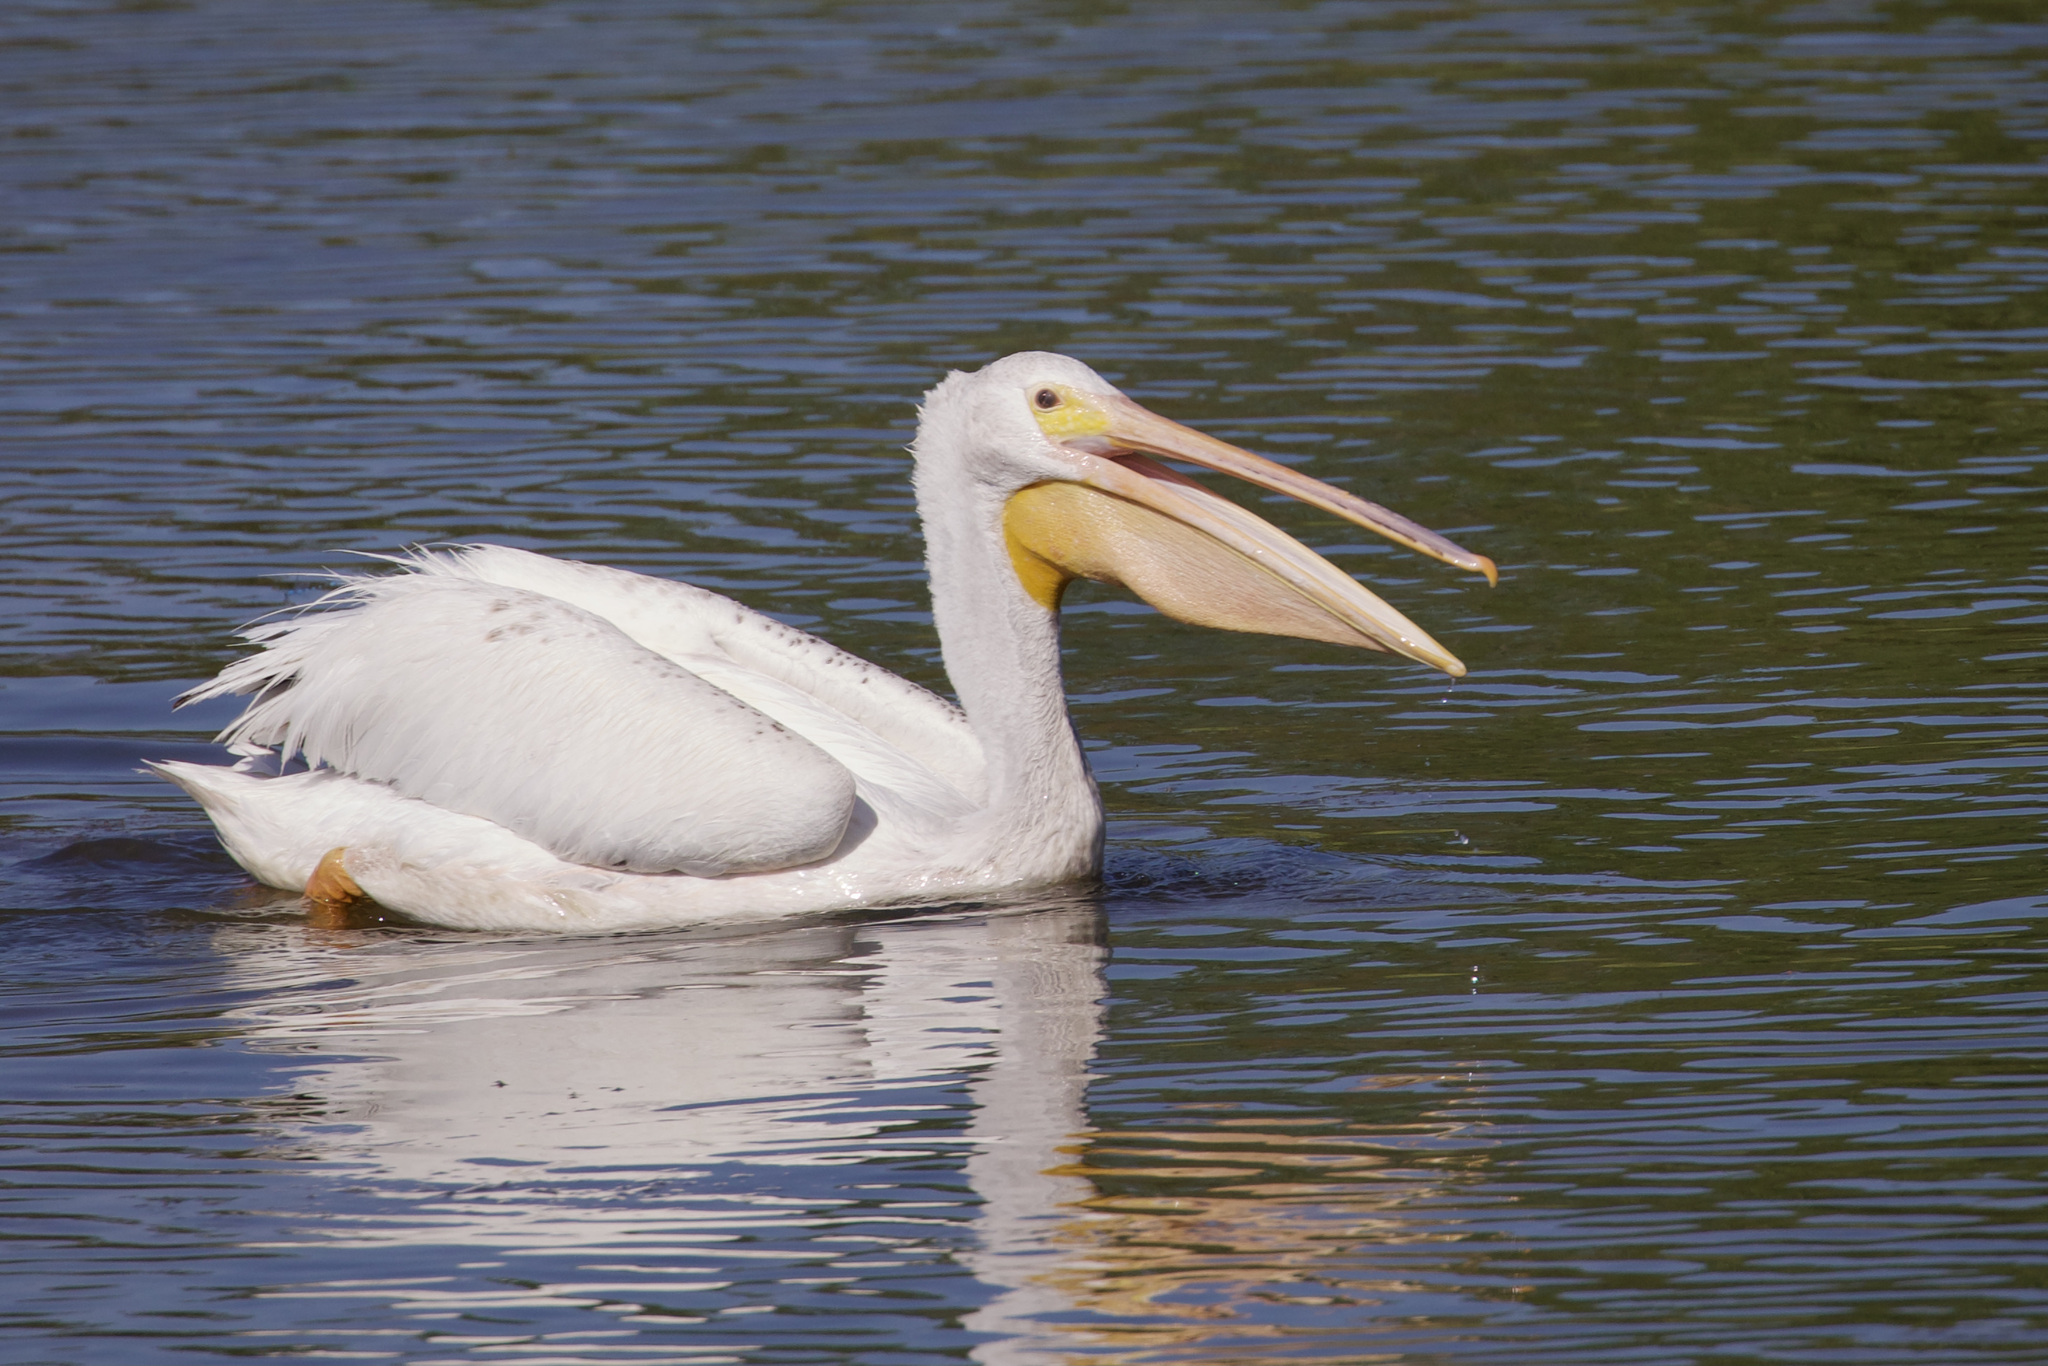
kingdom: Animalia
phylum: Chordata
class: Aves
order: Pelecaniformes
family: Pelecanidae
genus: Pelecanus
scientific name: Pelecanus erythrorhynchos
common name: American white pelican
